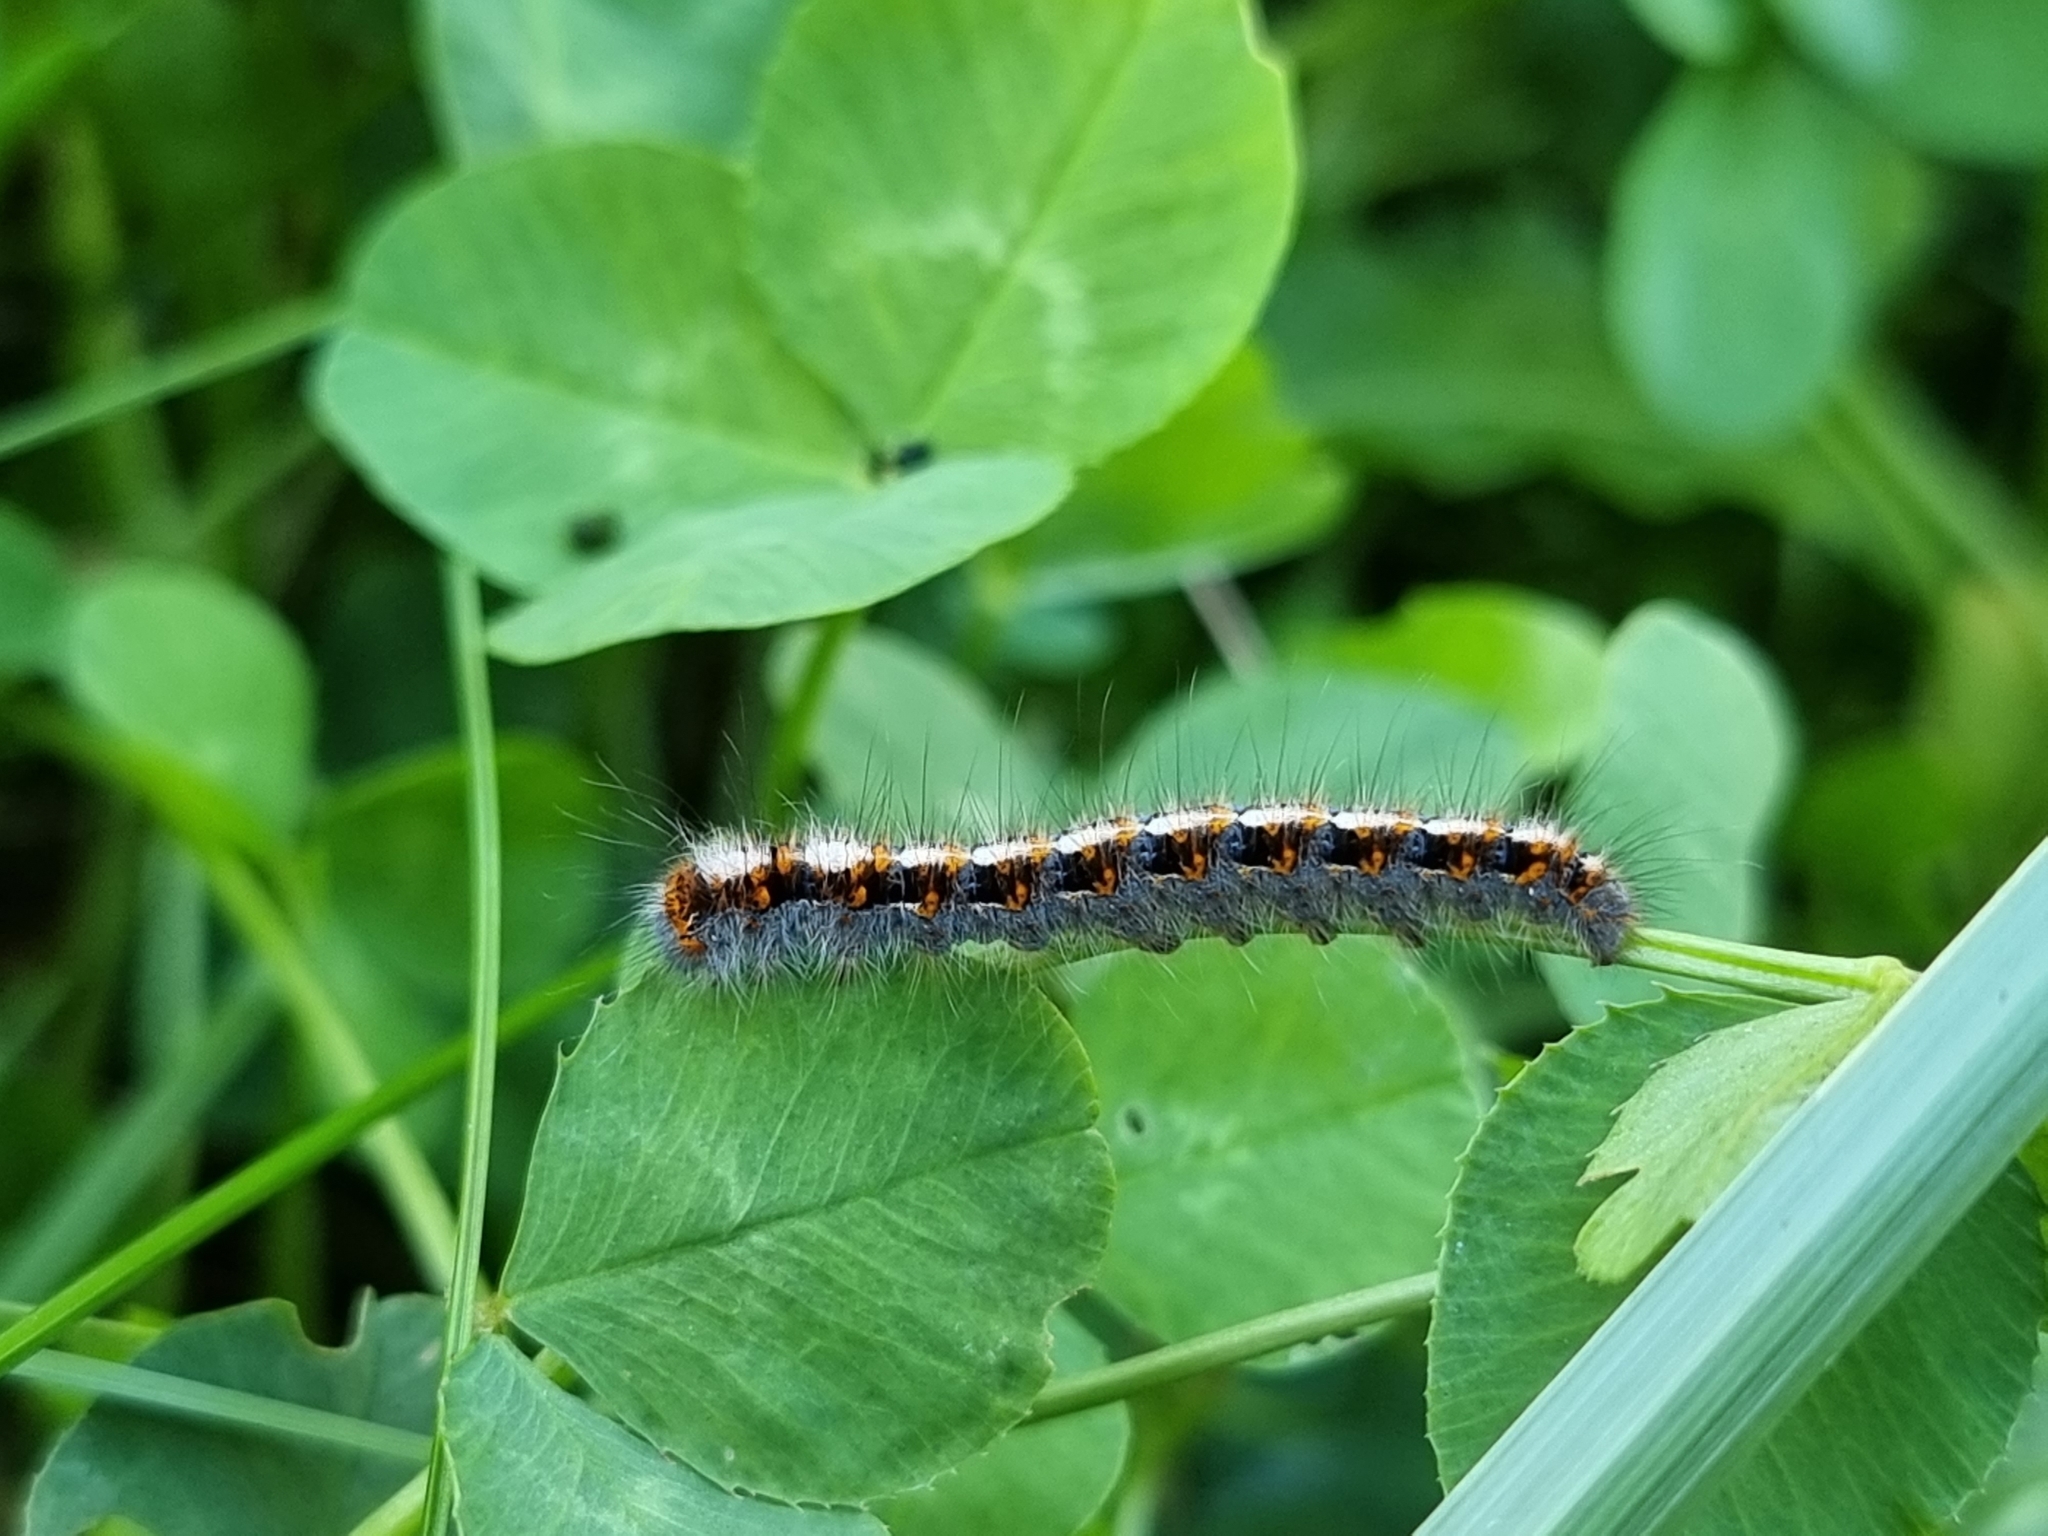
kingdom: Animalia
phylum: Arthropoda
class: Insecta
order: Lepidoptera
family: Lasiocampidae
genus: Lasiocampa
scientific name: Lasiocampa quercus
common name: Oak eggar
